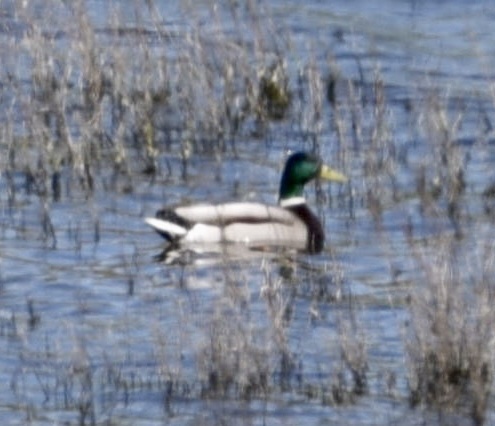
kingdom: Animalia
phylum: Chordata
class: Aves
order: Anseriformes
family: Anatidae
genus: Anas
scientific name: Anas platyrhynchos
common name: Mallard
